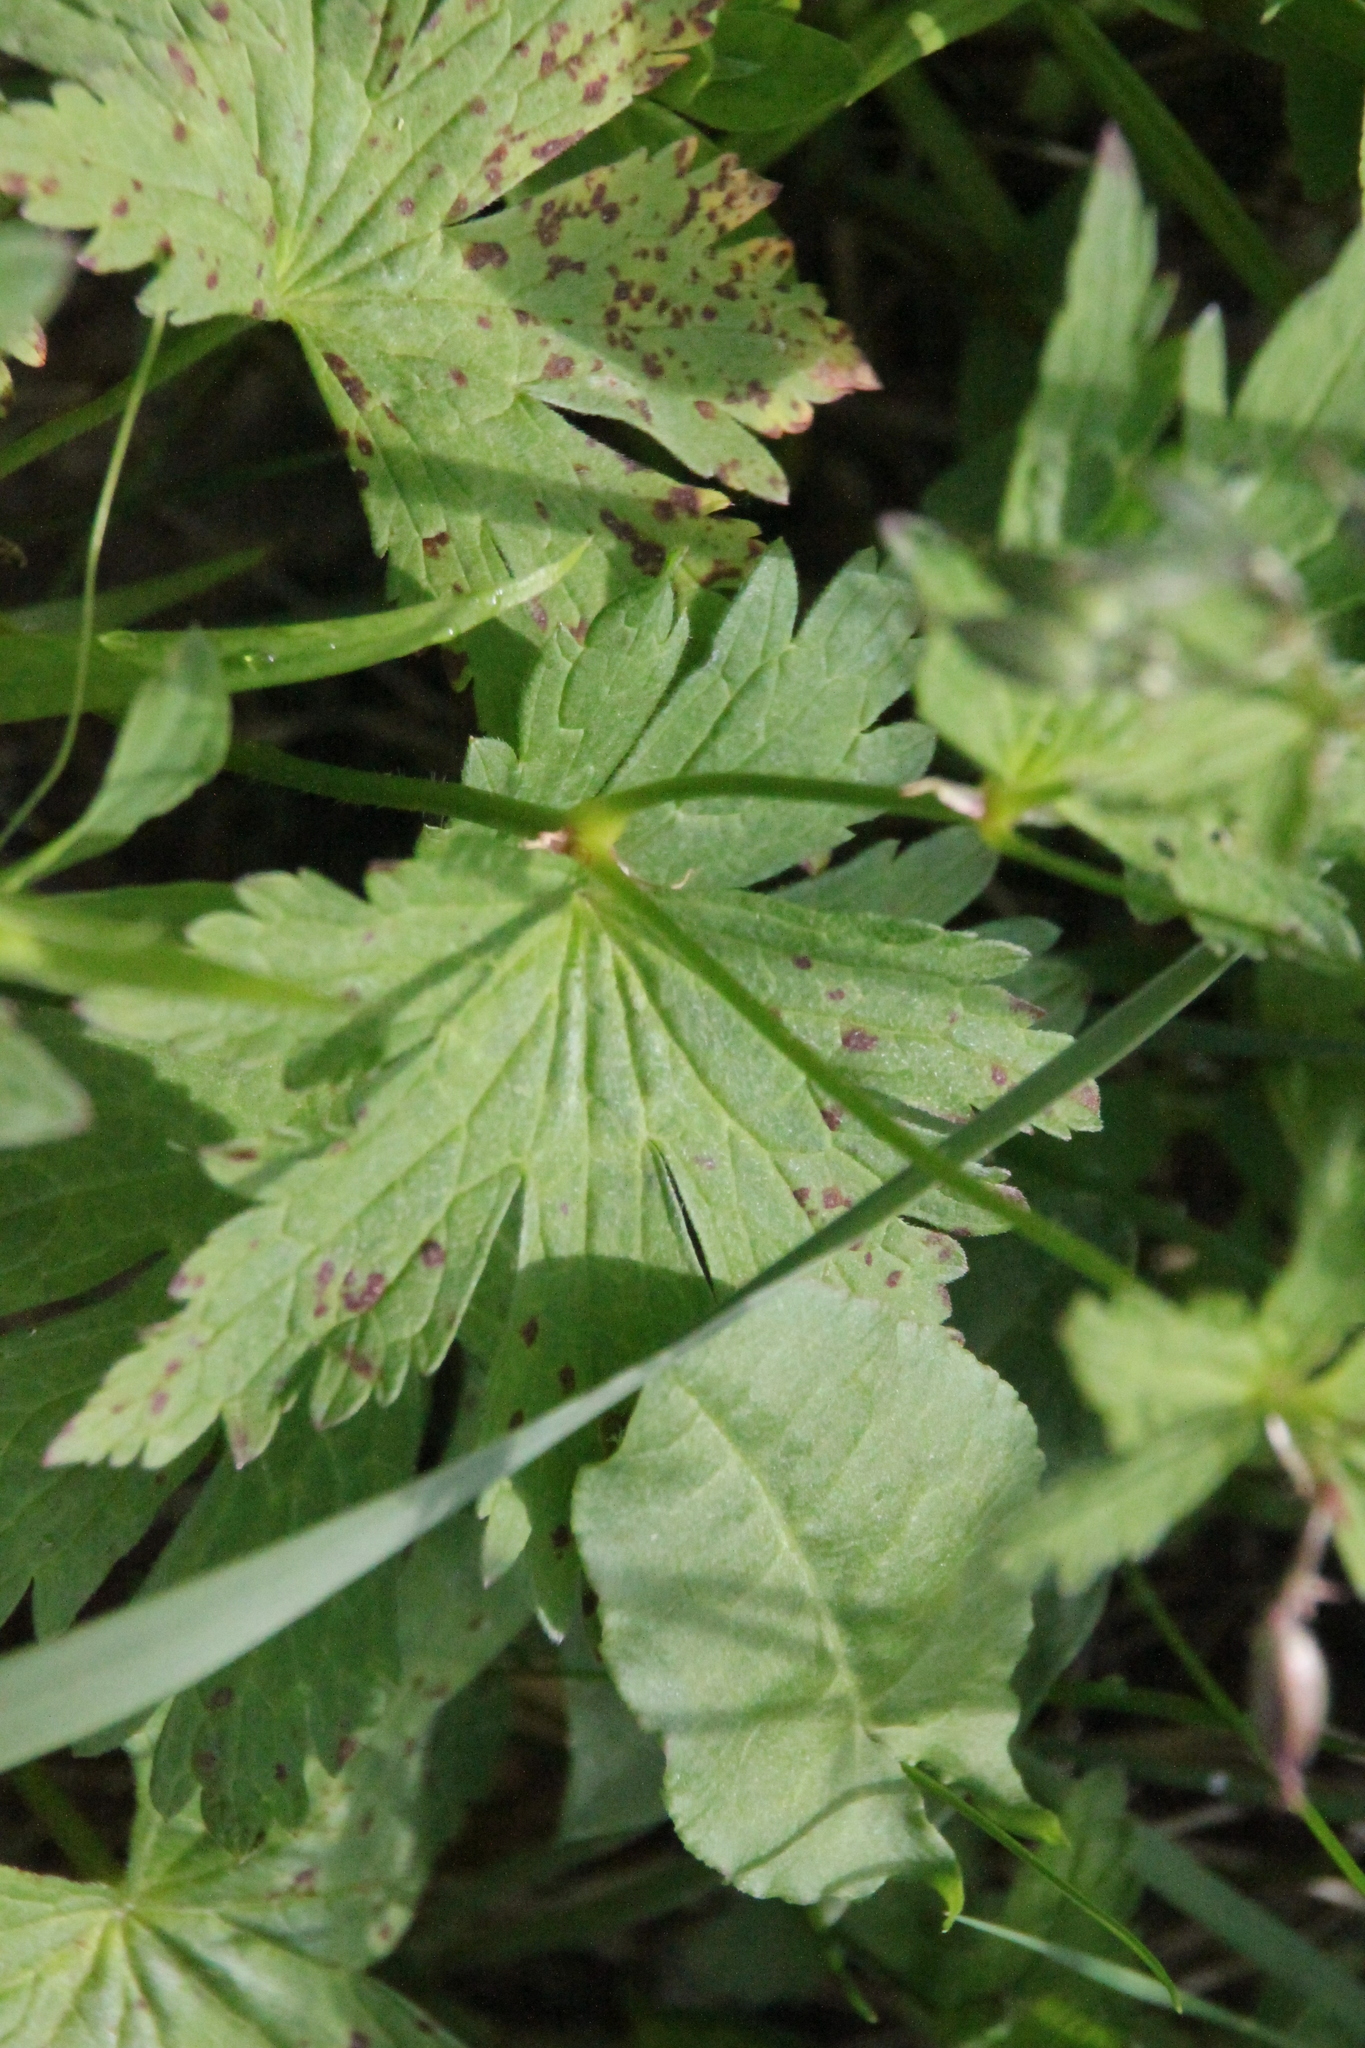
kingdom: Plantae
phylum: Tracheophyta
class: Magnoliopsida
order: Geraniales
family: Geraniaceae
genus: Geranium
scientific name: Geranium sylvaticum
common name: Wood crane's-bill
